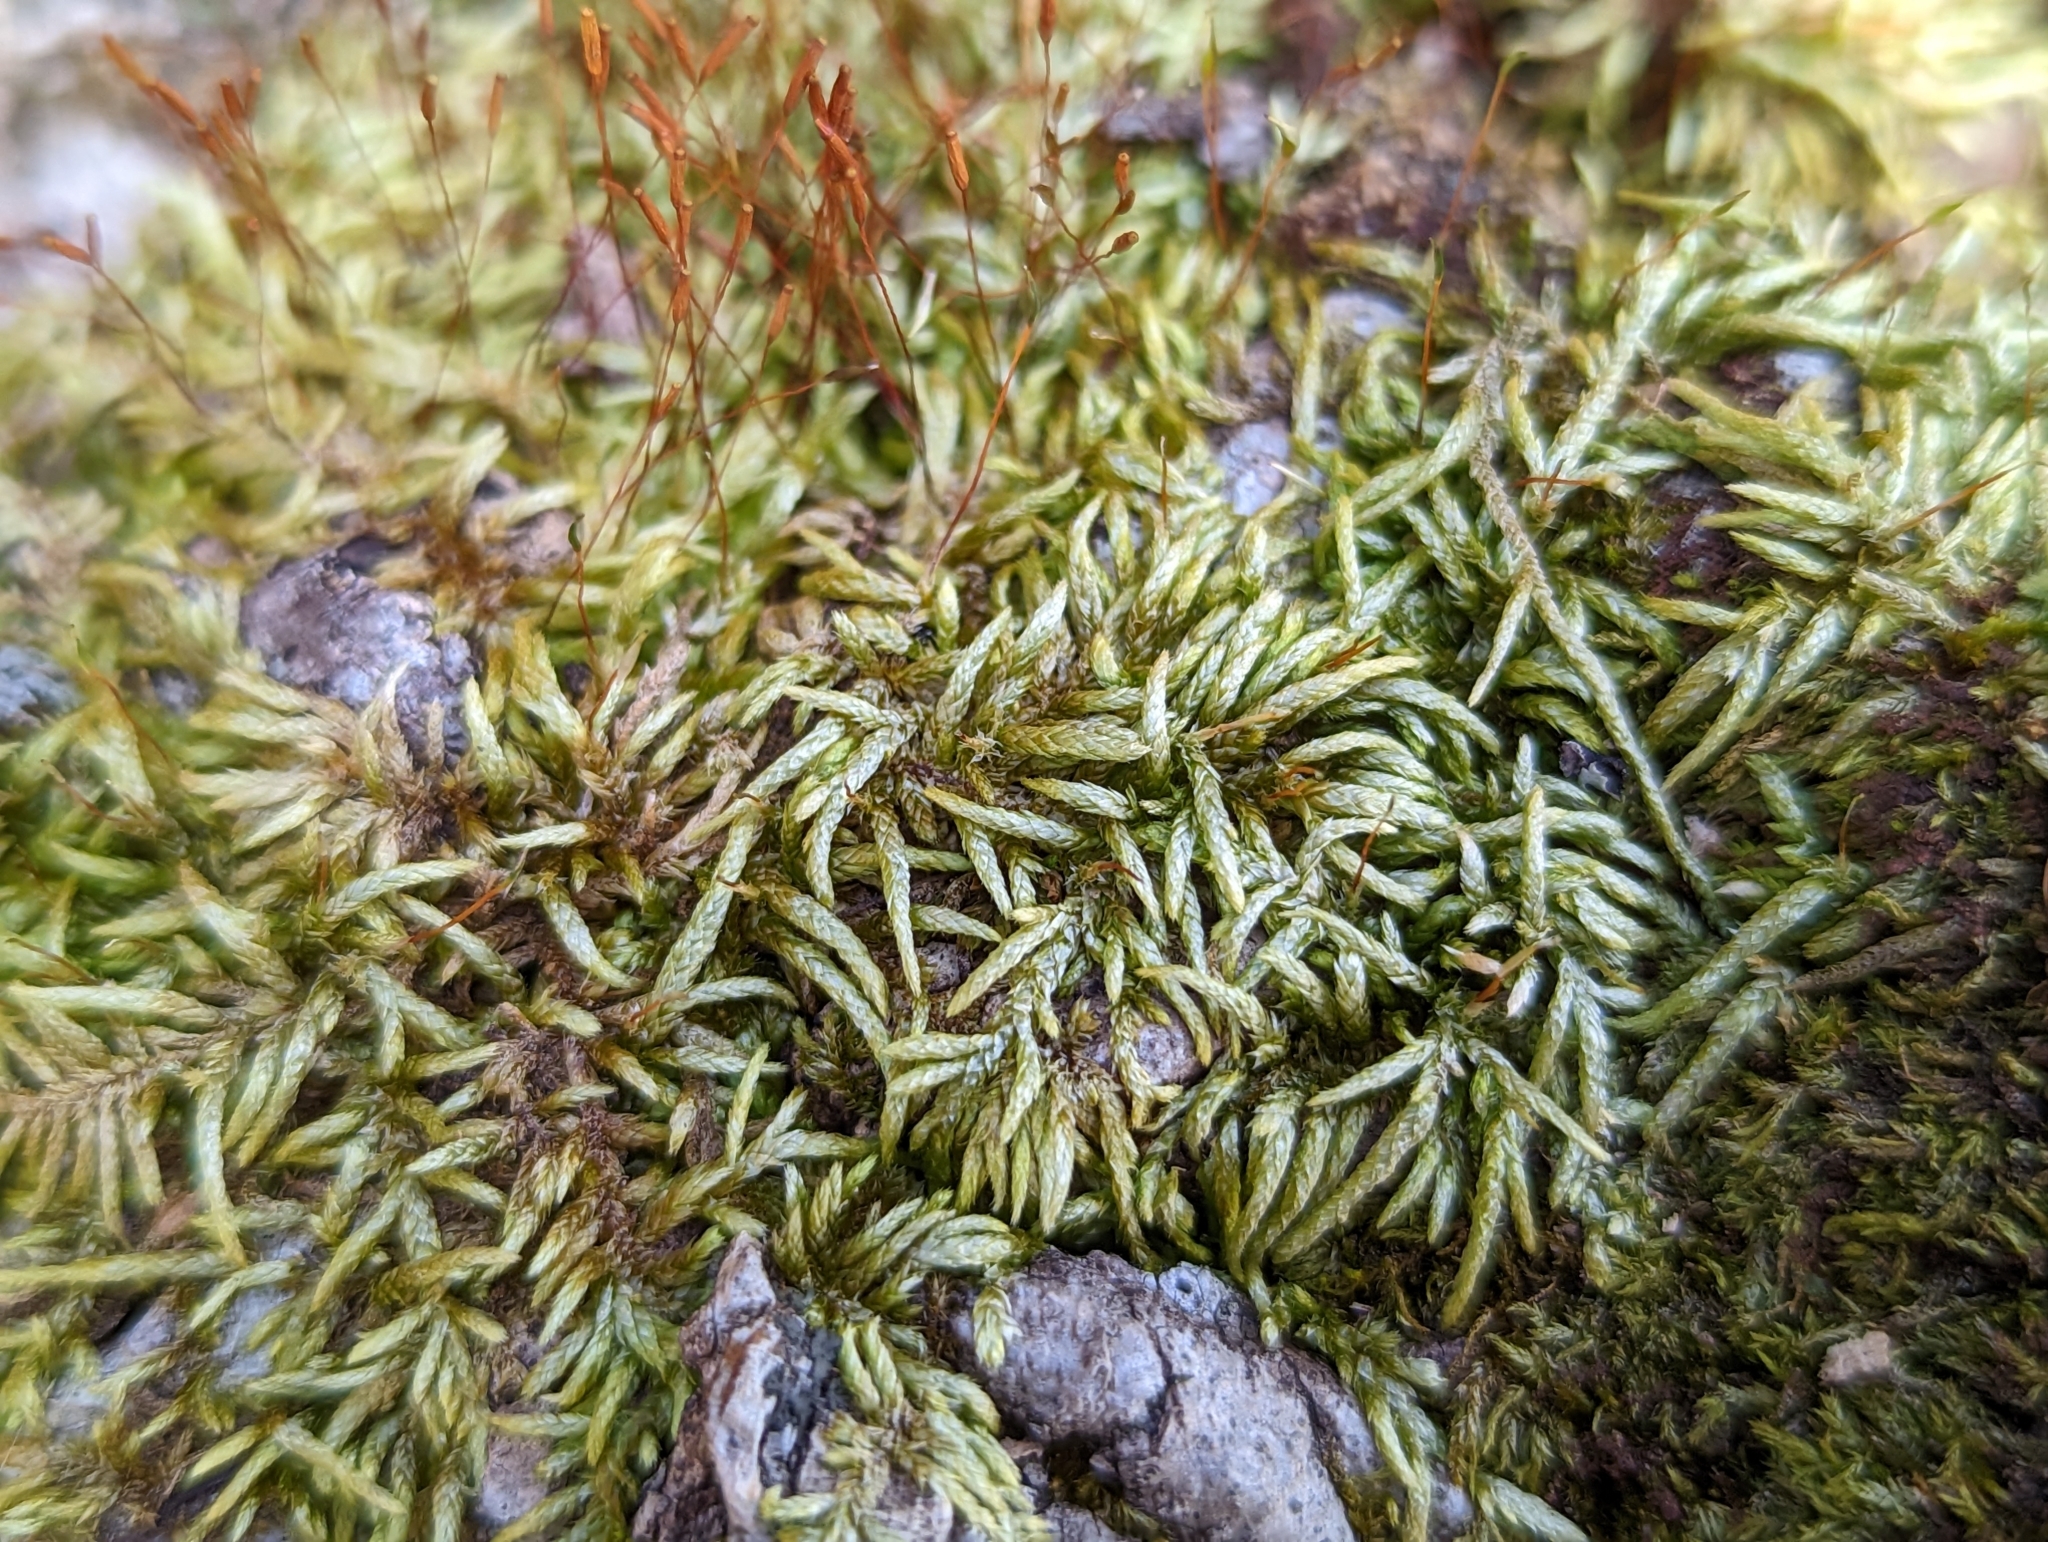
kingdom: Plantae
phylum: Bryophyta
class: Bryopsida
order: Hypnales
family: Entodontaceae
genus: Entodon
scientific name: Entodon seductrix
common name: Round-stemmed entodon moss
